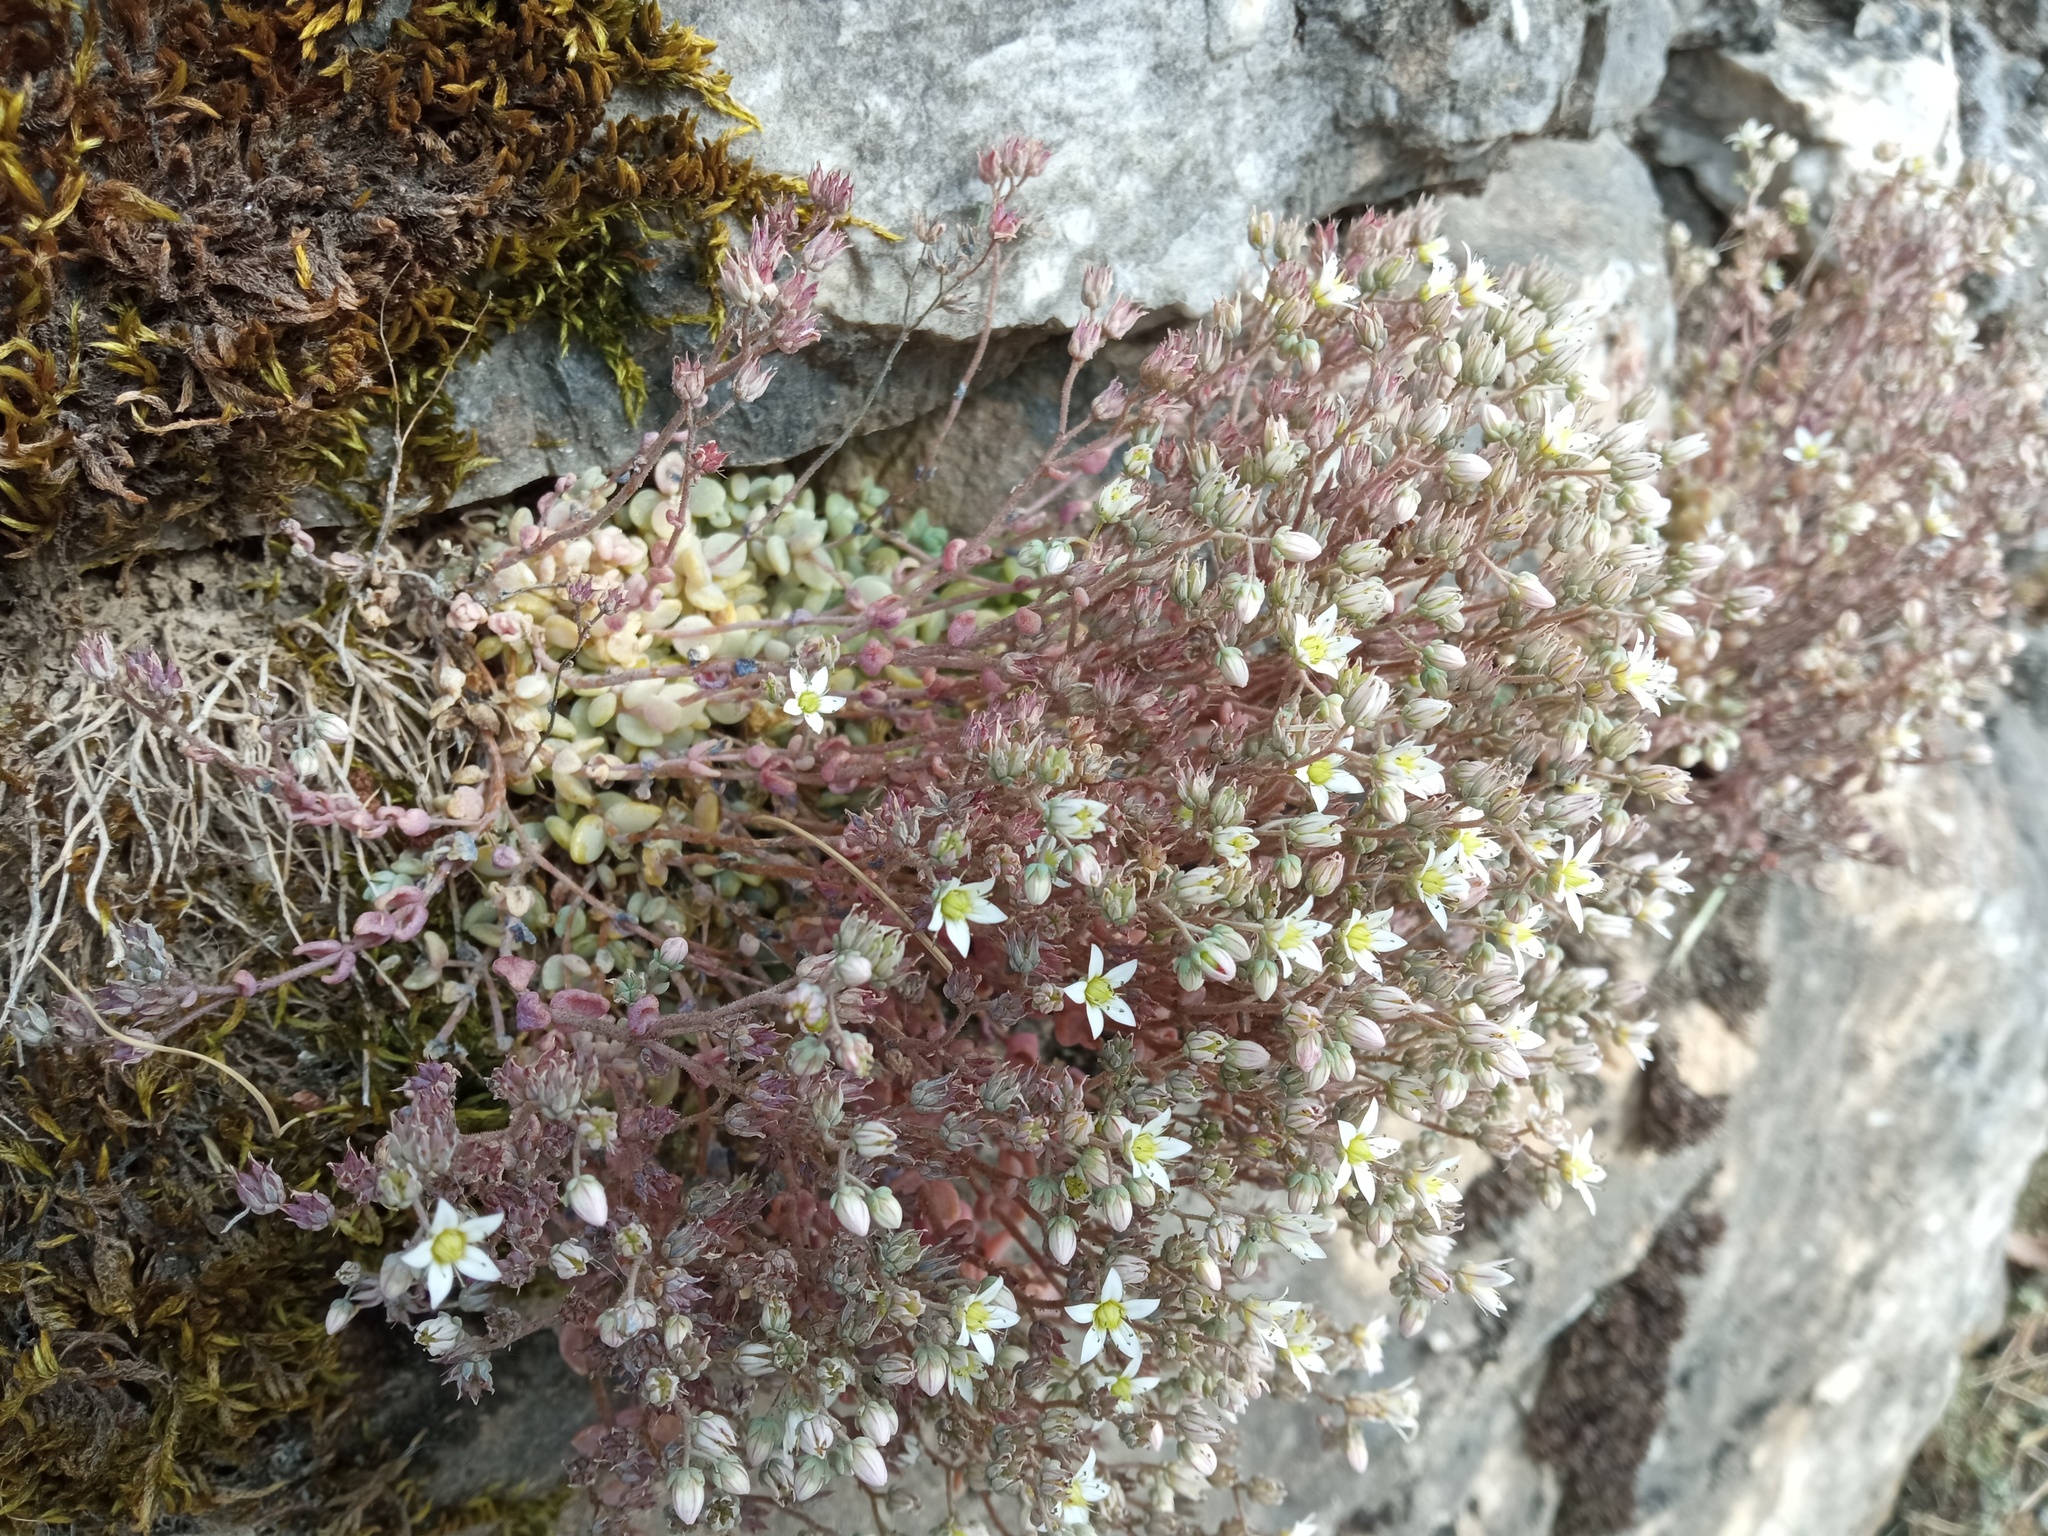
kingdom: Plantae
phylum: Tracheophyta
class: Magnoliopsida
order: Saxifragales
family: Crassulaceae
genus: Sedum
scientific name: Sedum dasyphyllum
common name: Thick-leaf stonecrop
